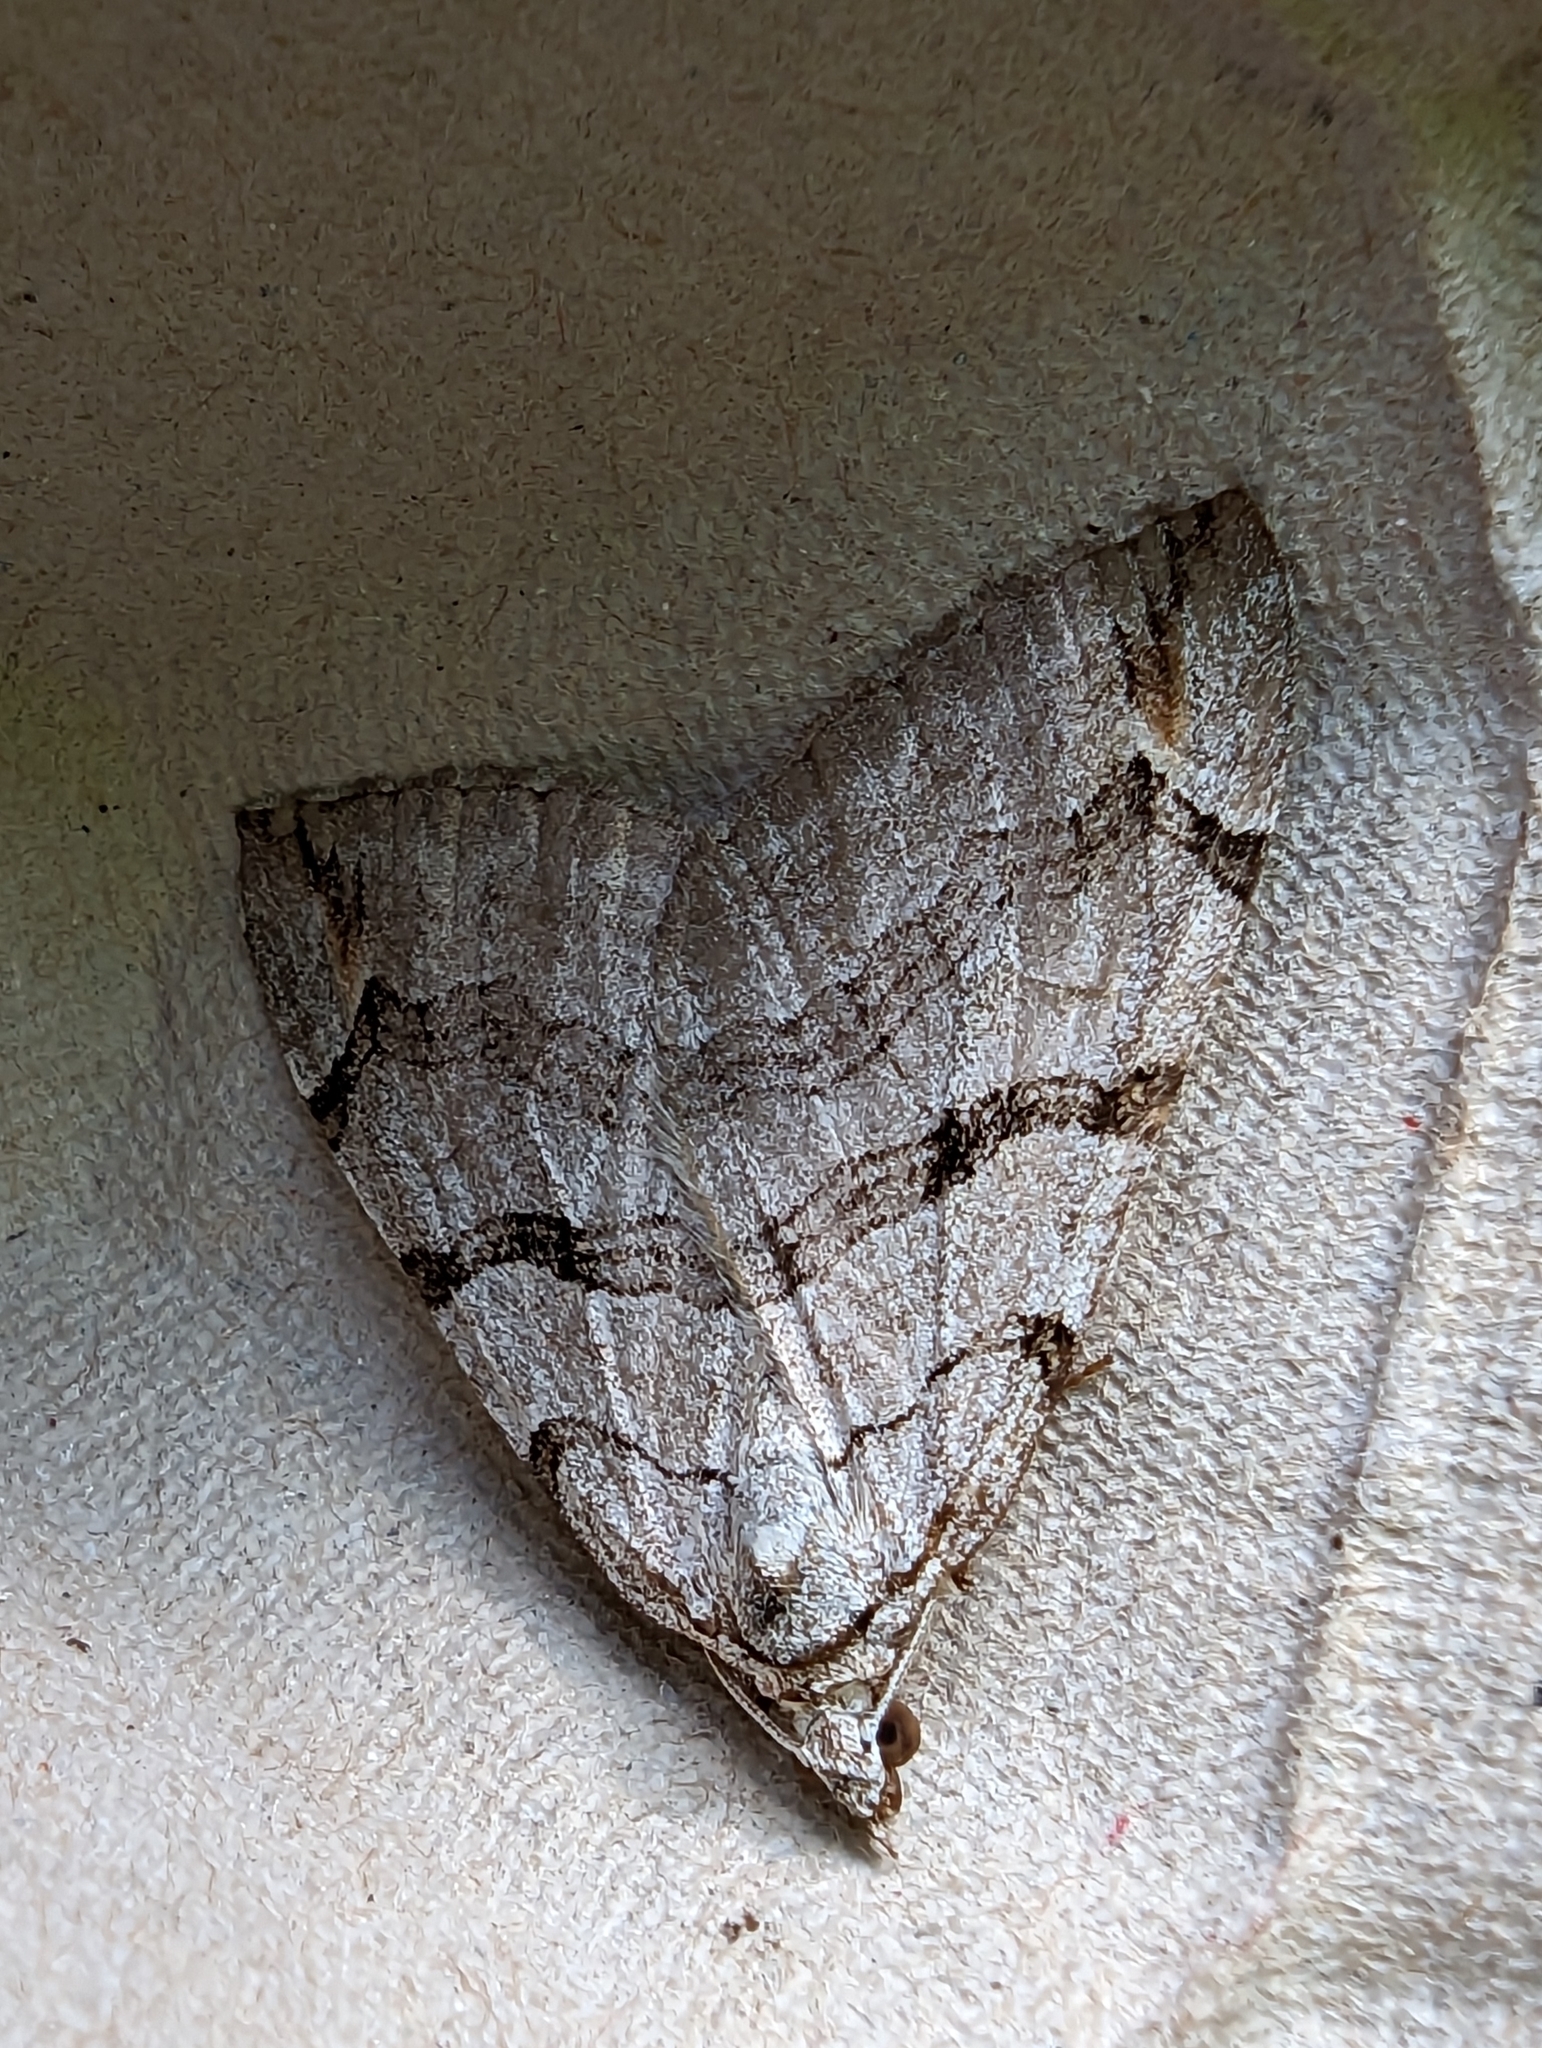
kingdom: Animalia
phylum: Arthropoda
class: Insecta
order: Lepidoptera
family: Geometridae
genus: Aplocera
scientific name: Aplocera plagiata
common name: Treble-bar
